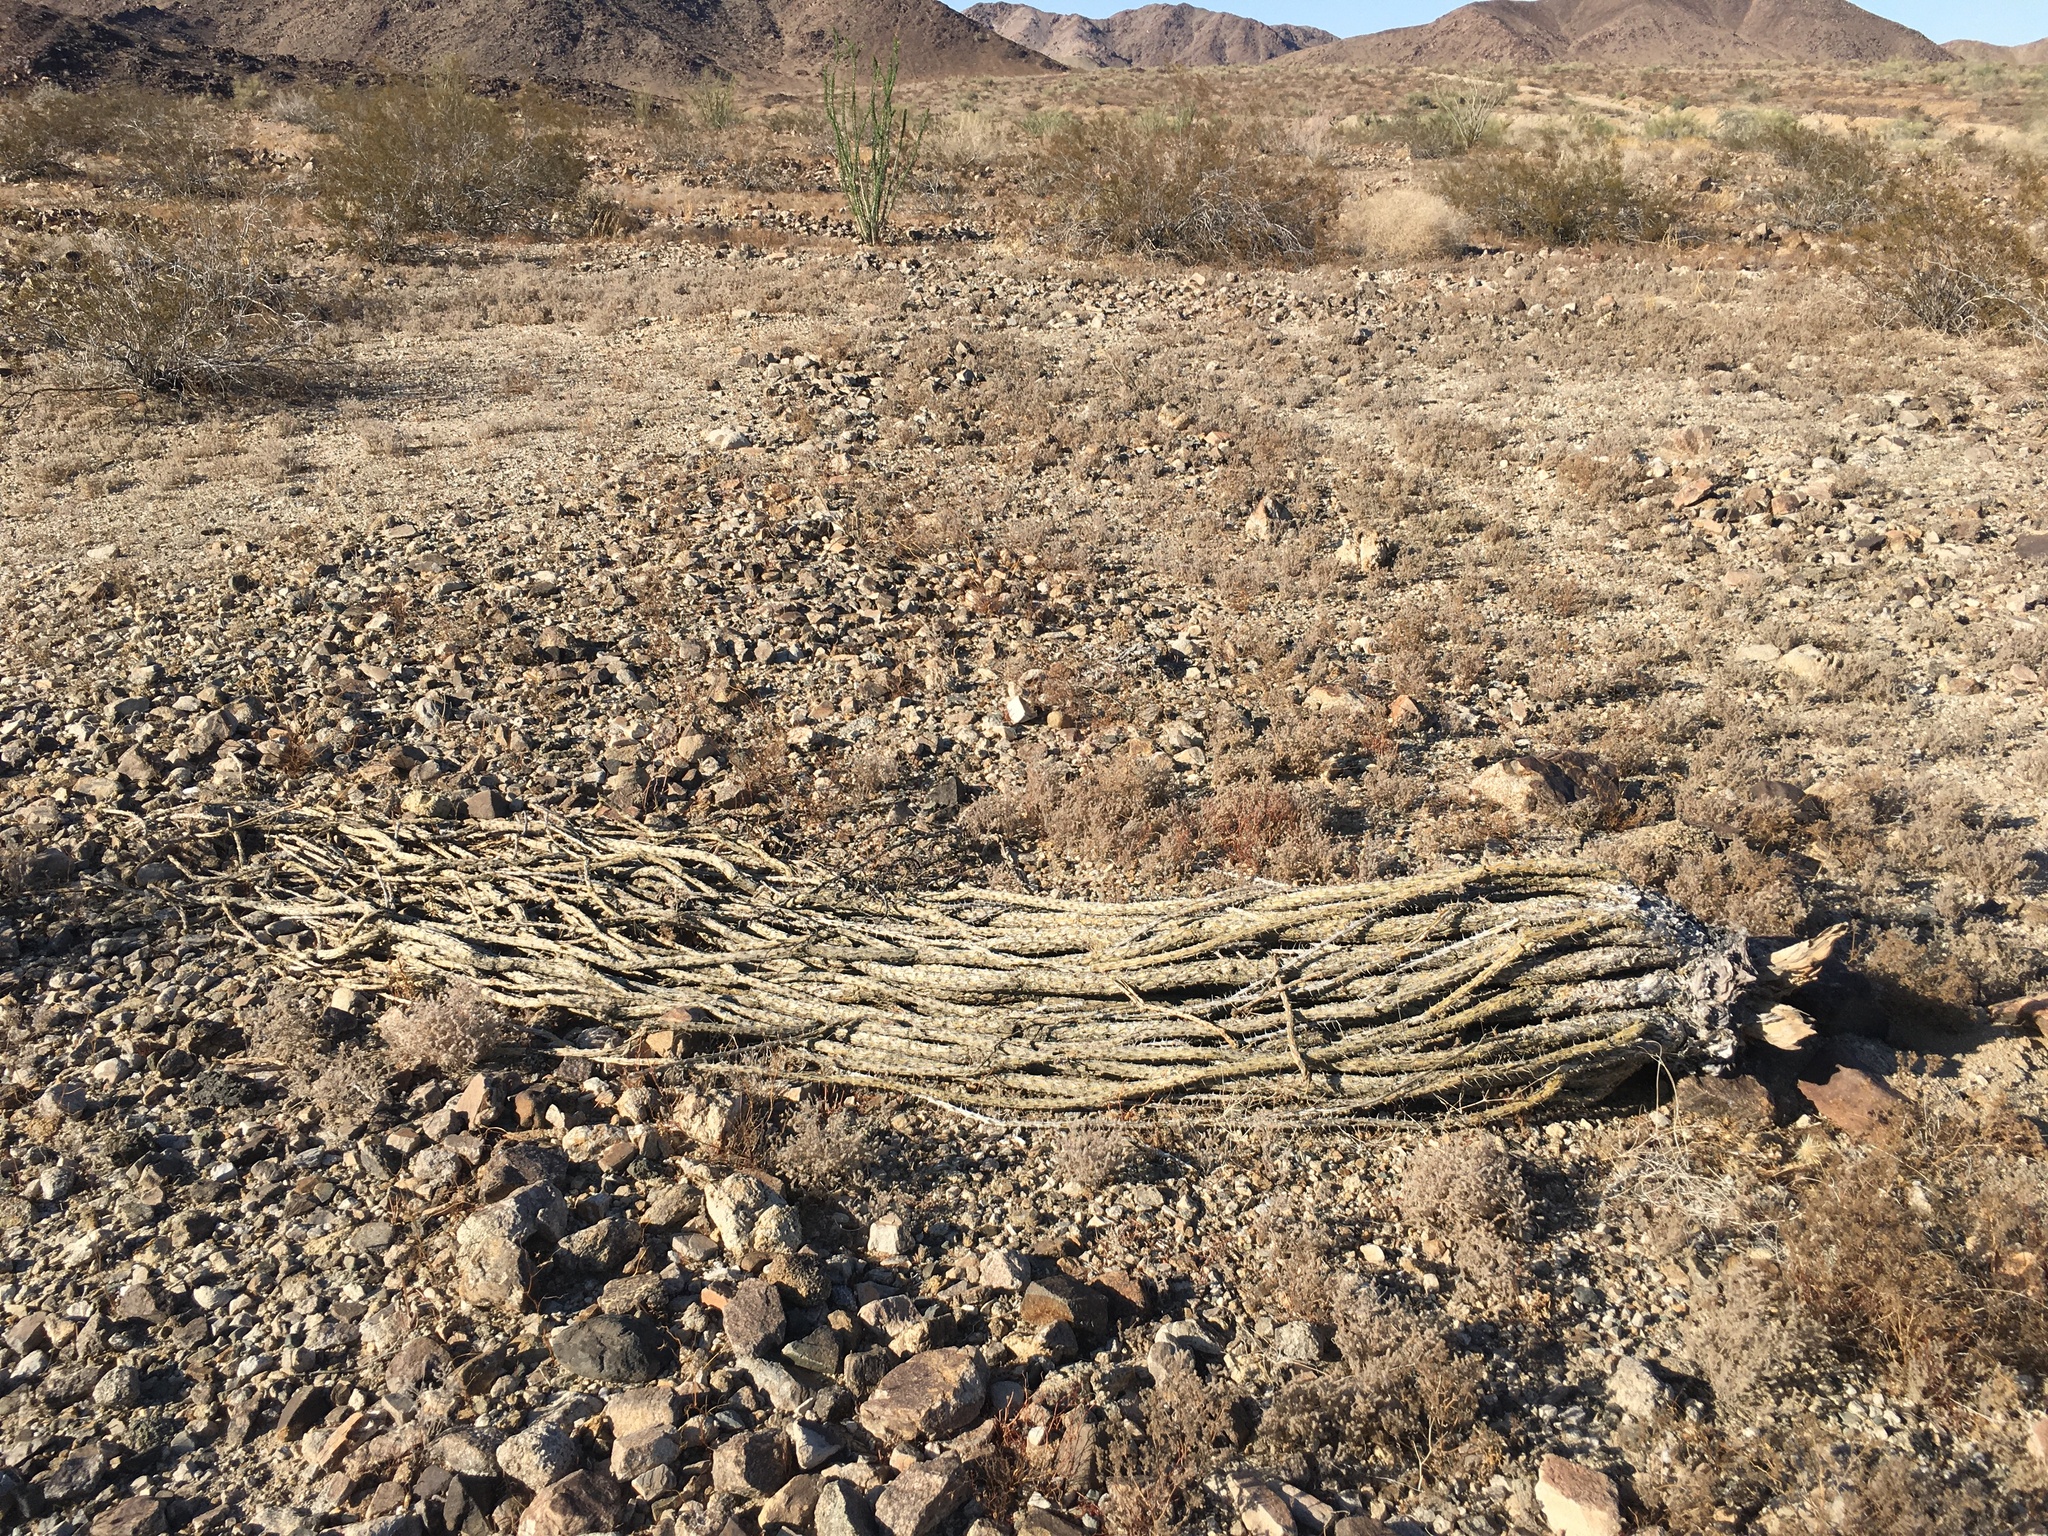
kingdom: Plantae
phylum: Tracheophyta
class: Magnoliopsida
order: Ericales
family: Fouquieriaceae
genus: Fouquieria
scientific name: Fouquieria splendens
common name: Vine-cactus
